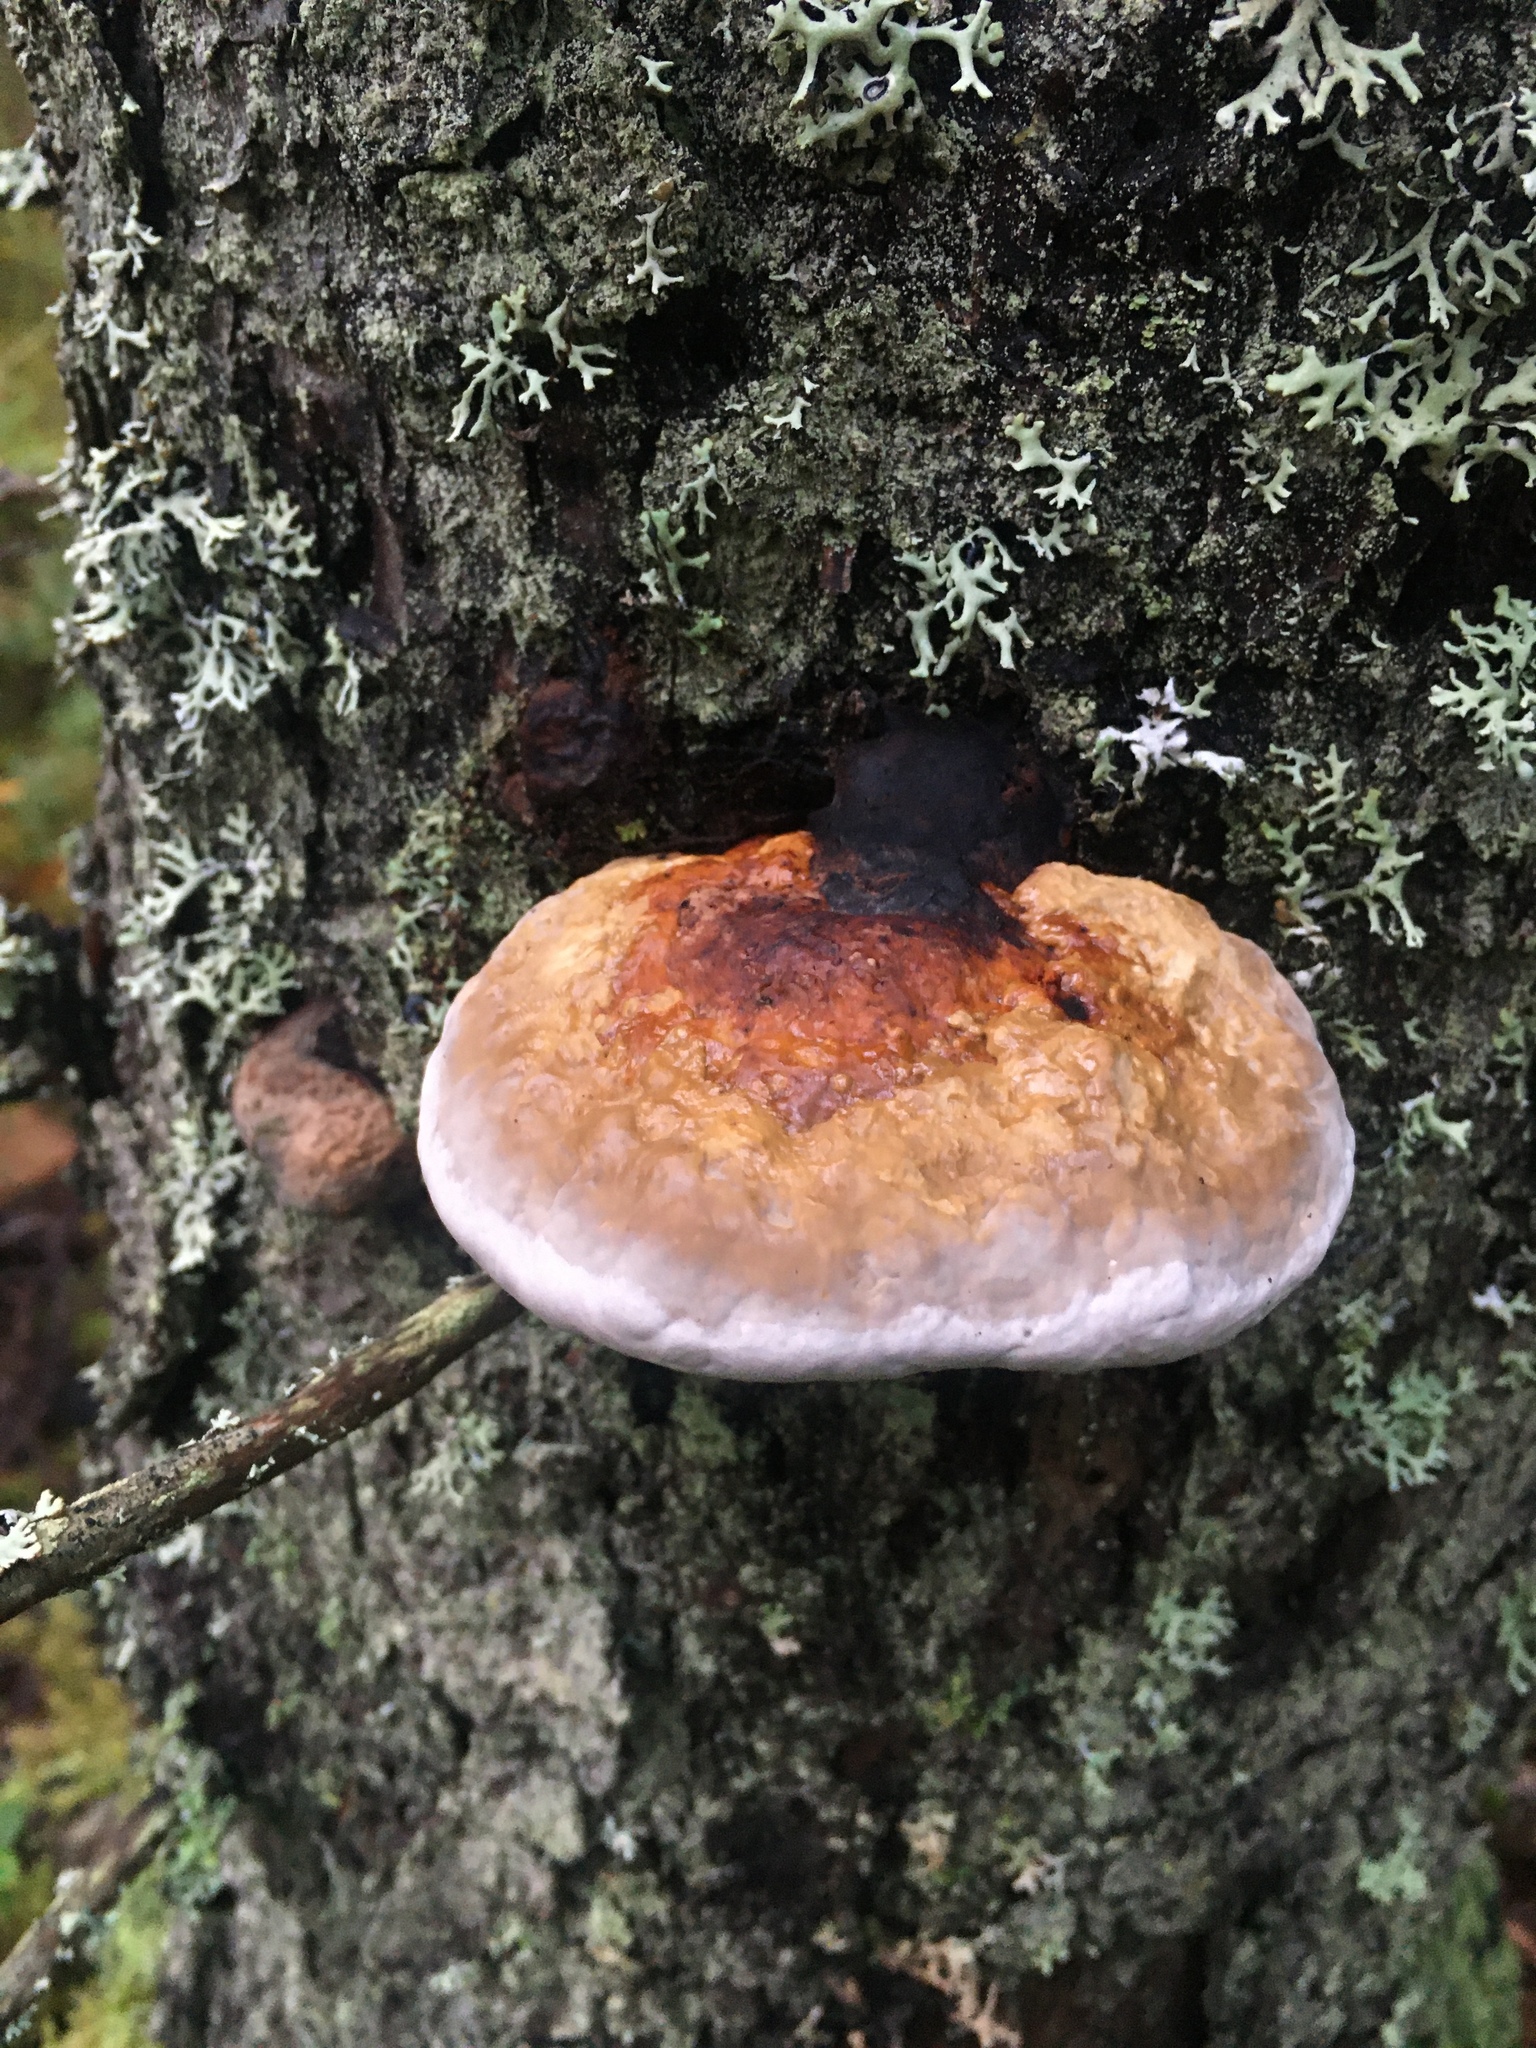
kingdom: Fungi
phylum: Basidiomycota
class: Agaricomycetes
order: Polyporales
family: Fomitopsidaceae
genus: Fomitopsis
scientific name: Fomitopsis pinicola
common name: Red-belted bracket
